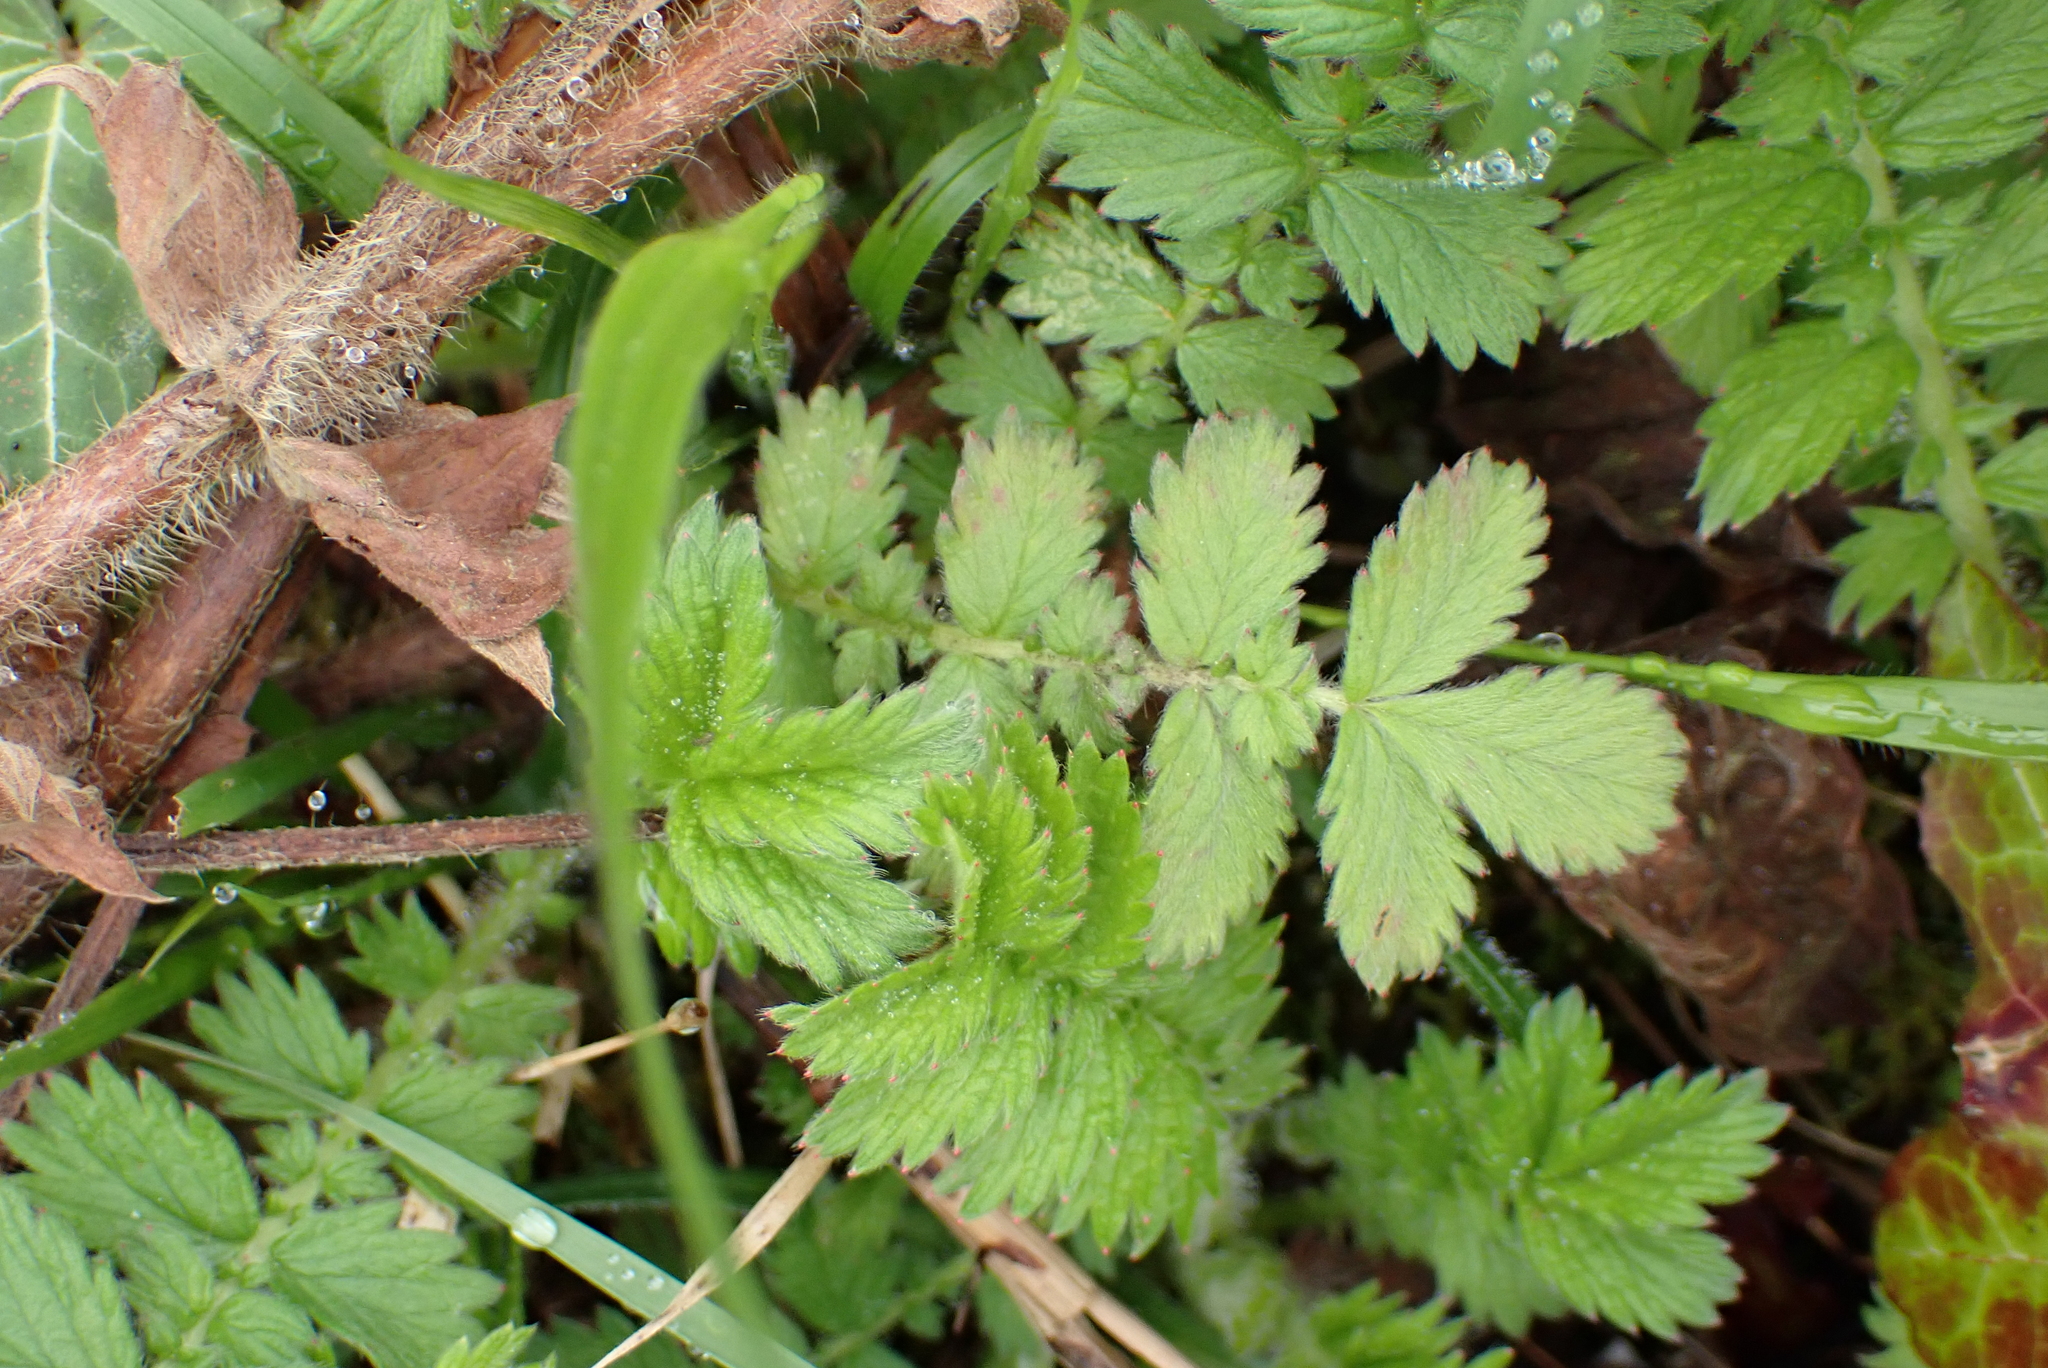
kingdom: Plantae
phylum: Tracheophyta
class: Magnoliopsida
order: Rosales
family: Rosaceae
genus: Agrimonia
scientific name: Agrimonia eupatoria
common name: Agrimony
